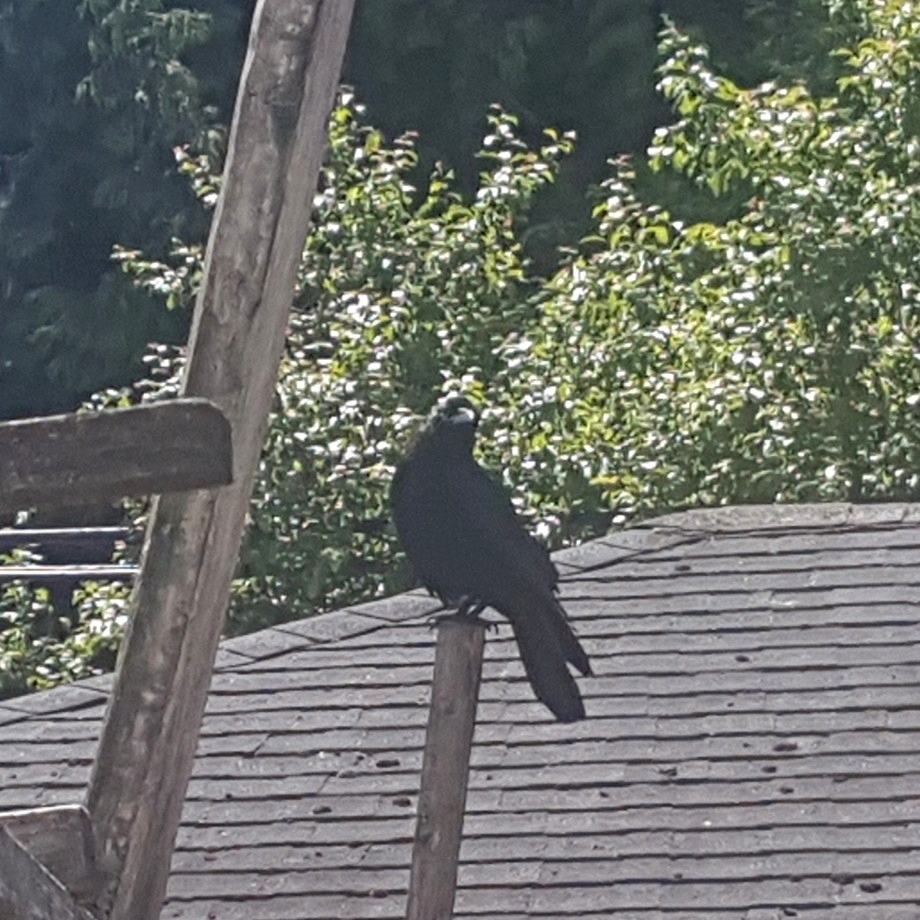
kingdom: Animalia
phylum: Chordata
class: Aves
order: Passeriformes
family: Corvidae
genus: Corvus
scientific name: Corvus brachyrhynchos
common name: American crow
